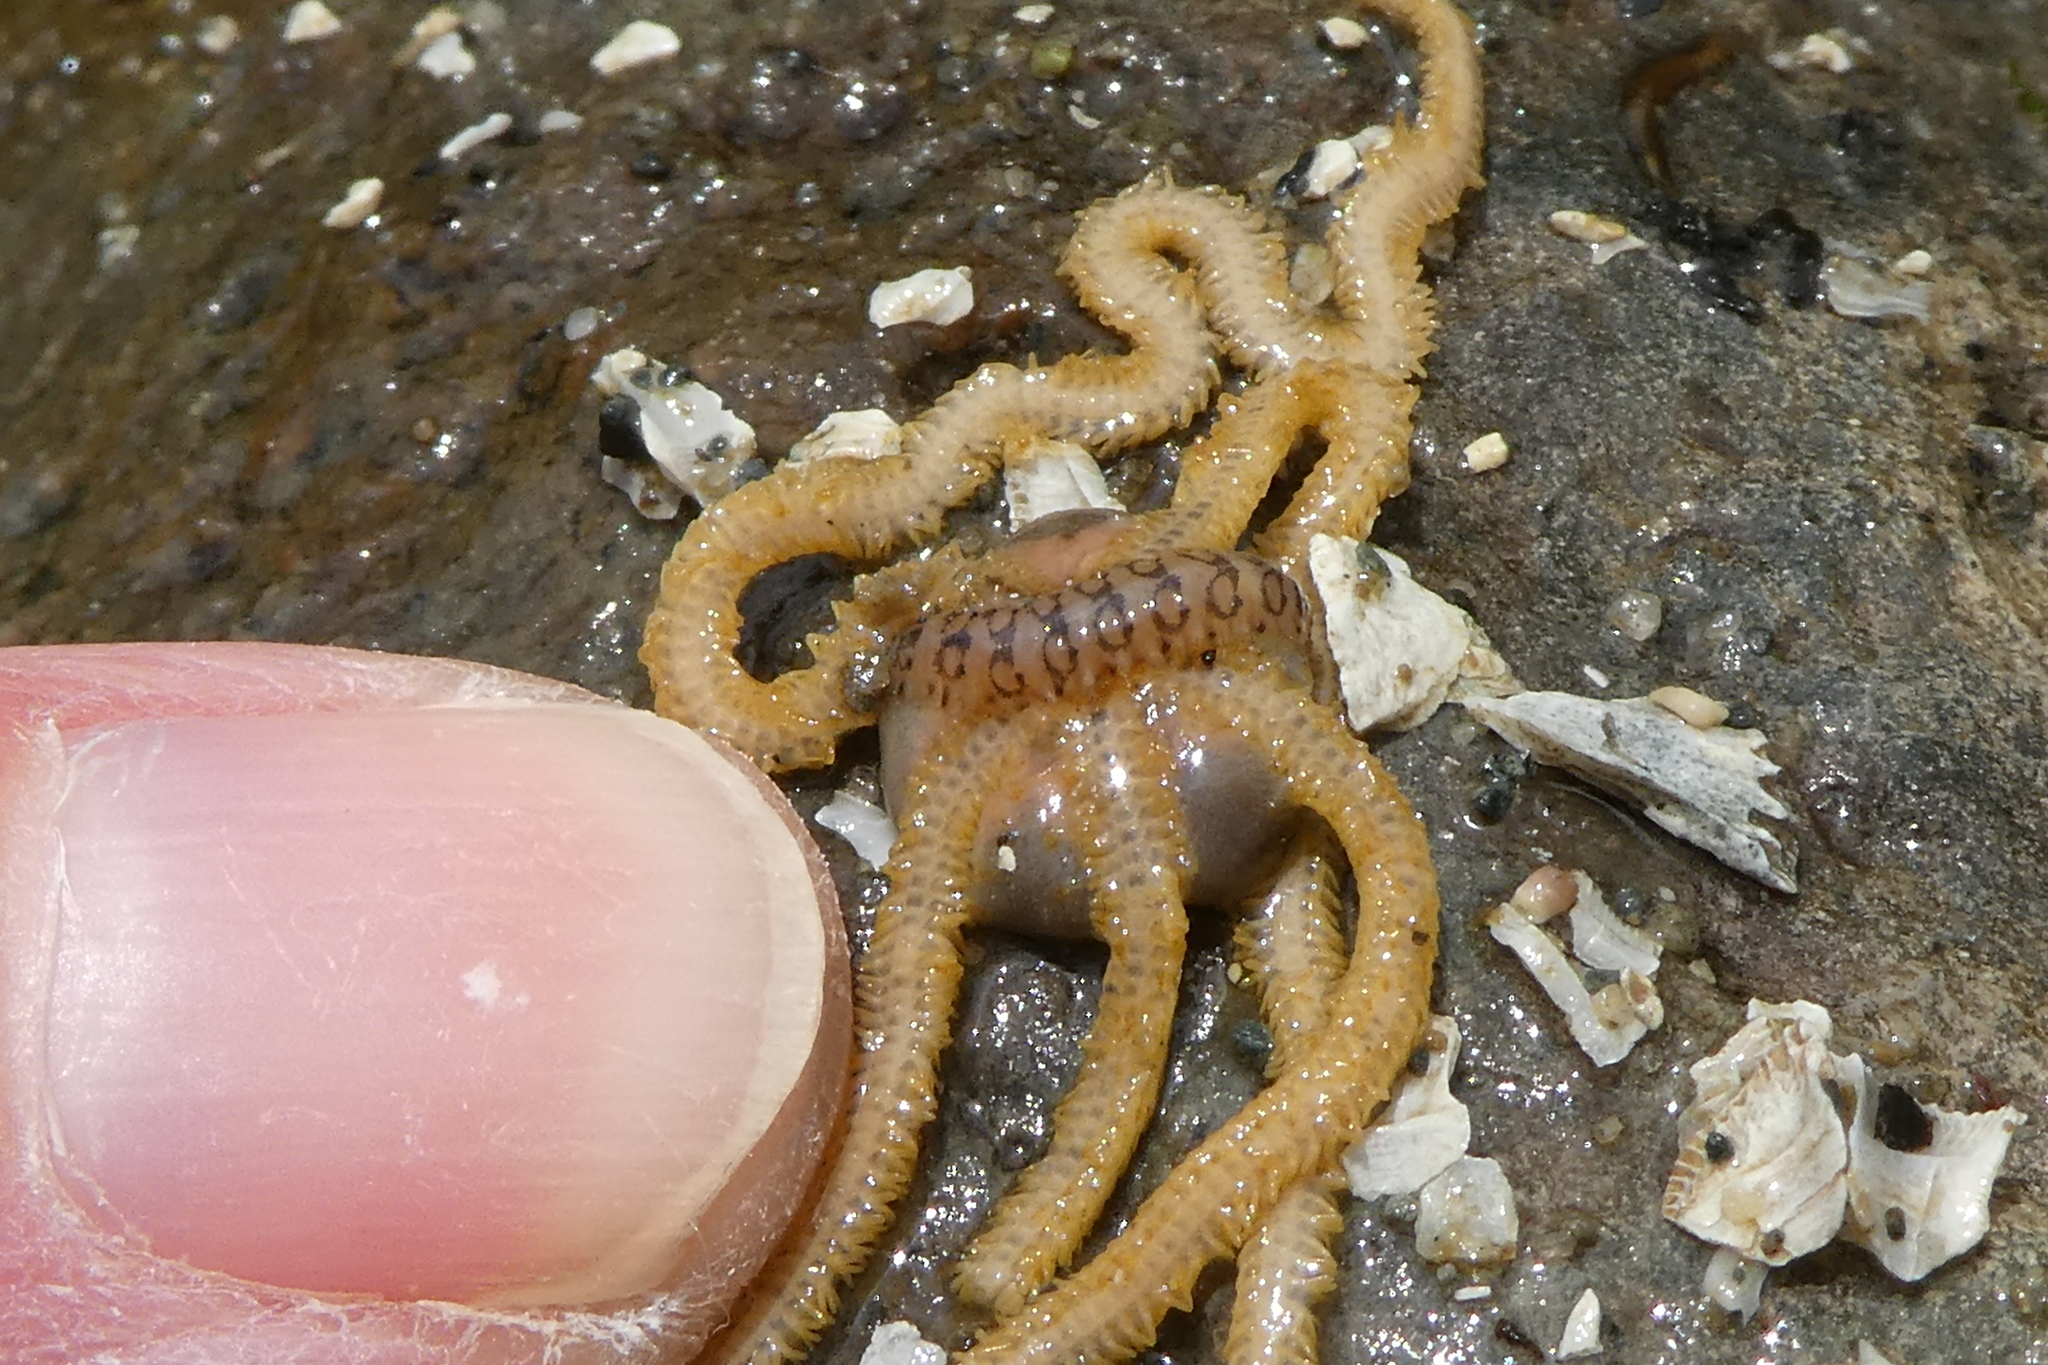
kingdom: Animalia
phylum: Annelida
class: Polychaeta
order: Phyllodocida
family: Polynoidae
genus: Malmgreniella
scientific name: Malmgreniella nigralba
